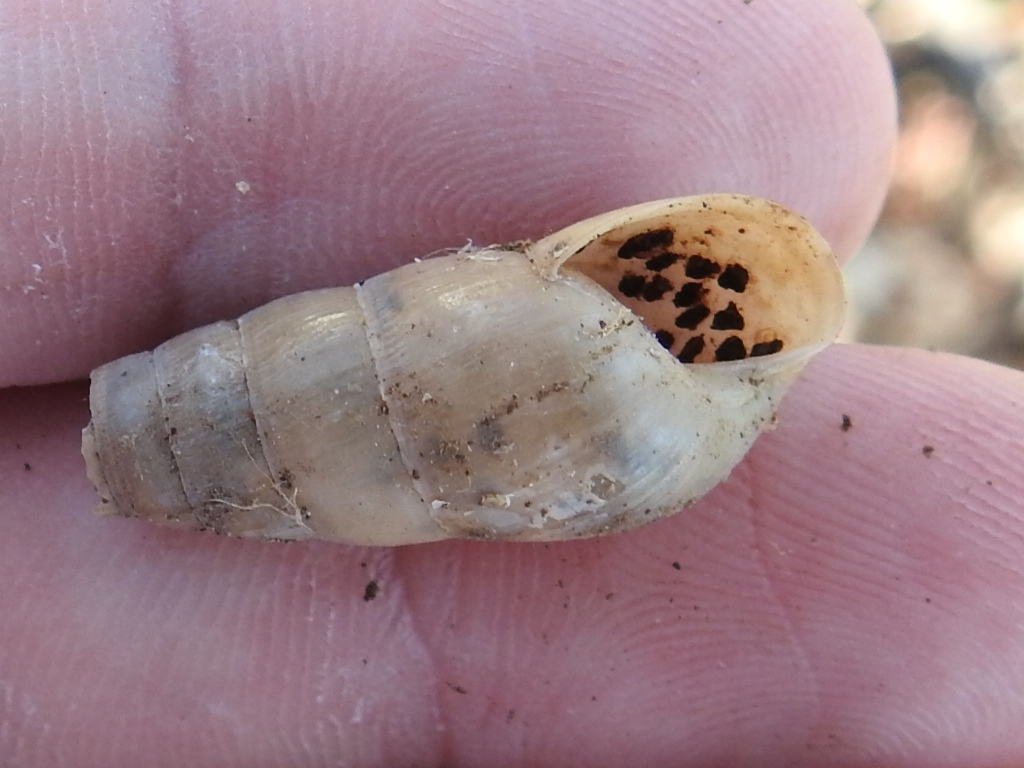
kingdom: Animalia
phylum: Mollusca
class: Gastropoda
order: Stylommatophora
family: Achatinidae
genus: Rumina
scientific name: Rumina decollata
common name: Decollate snail
